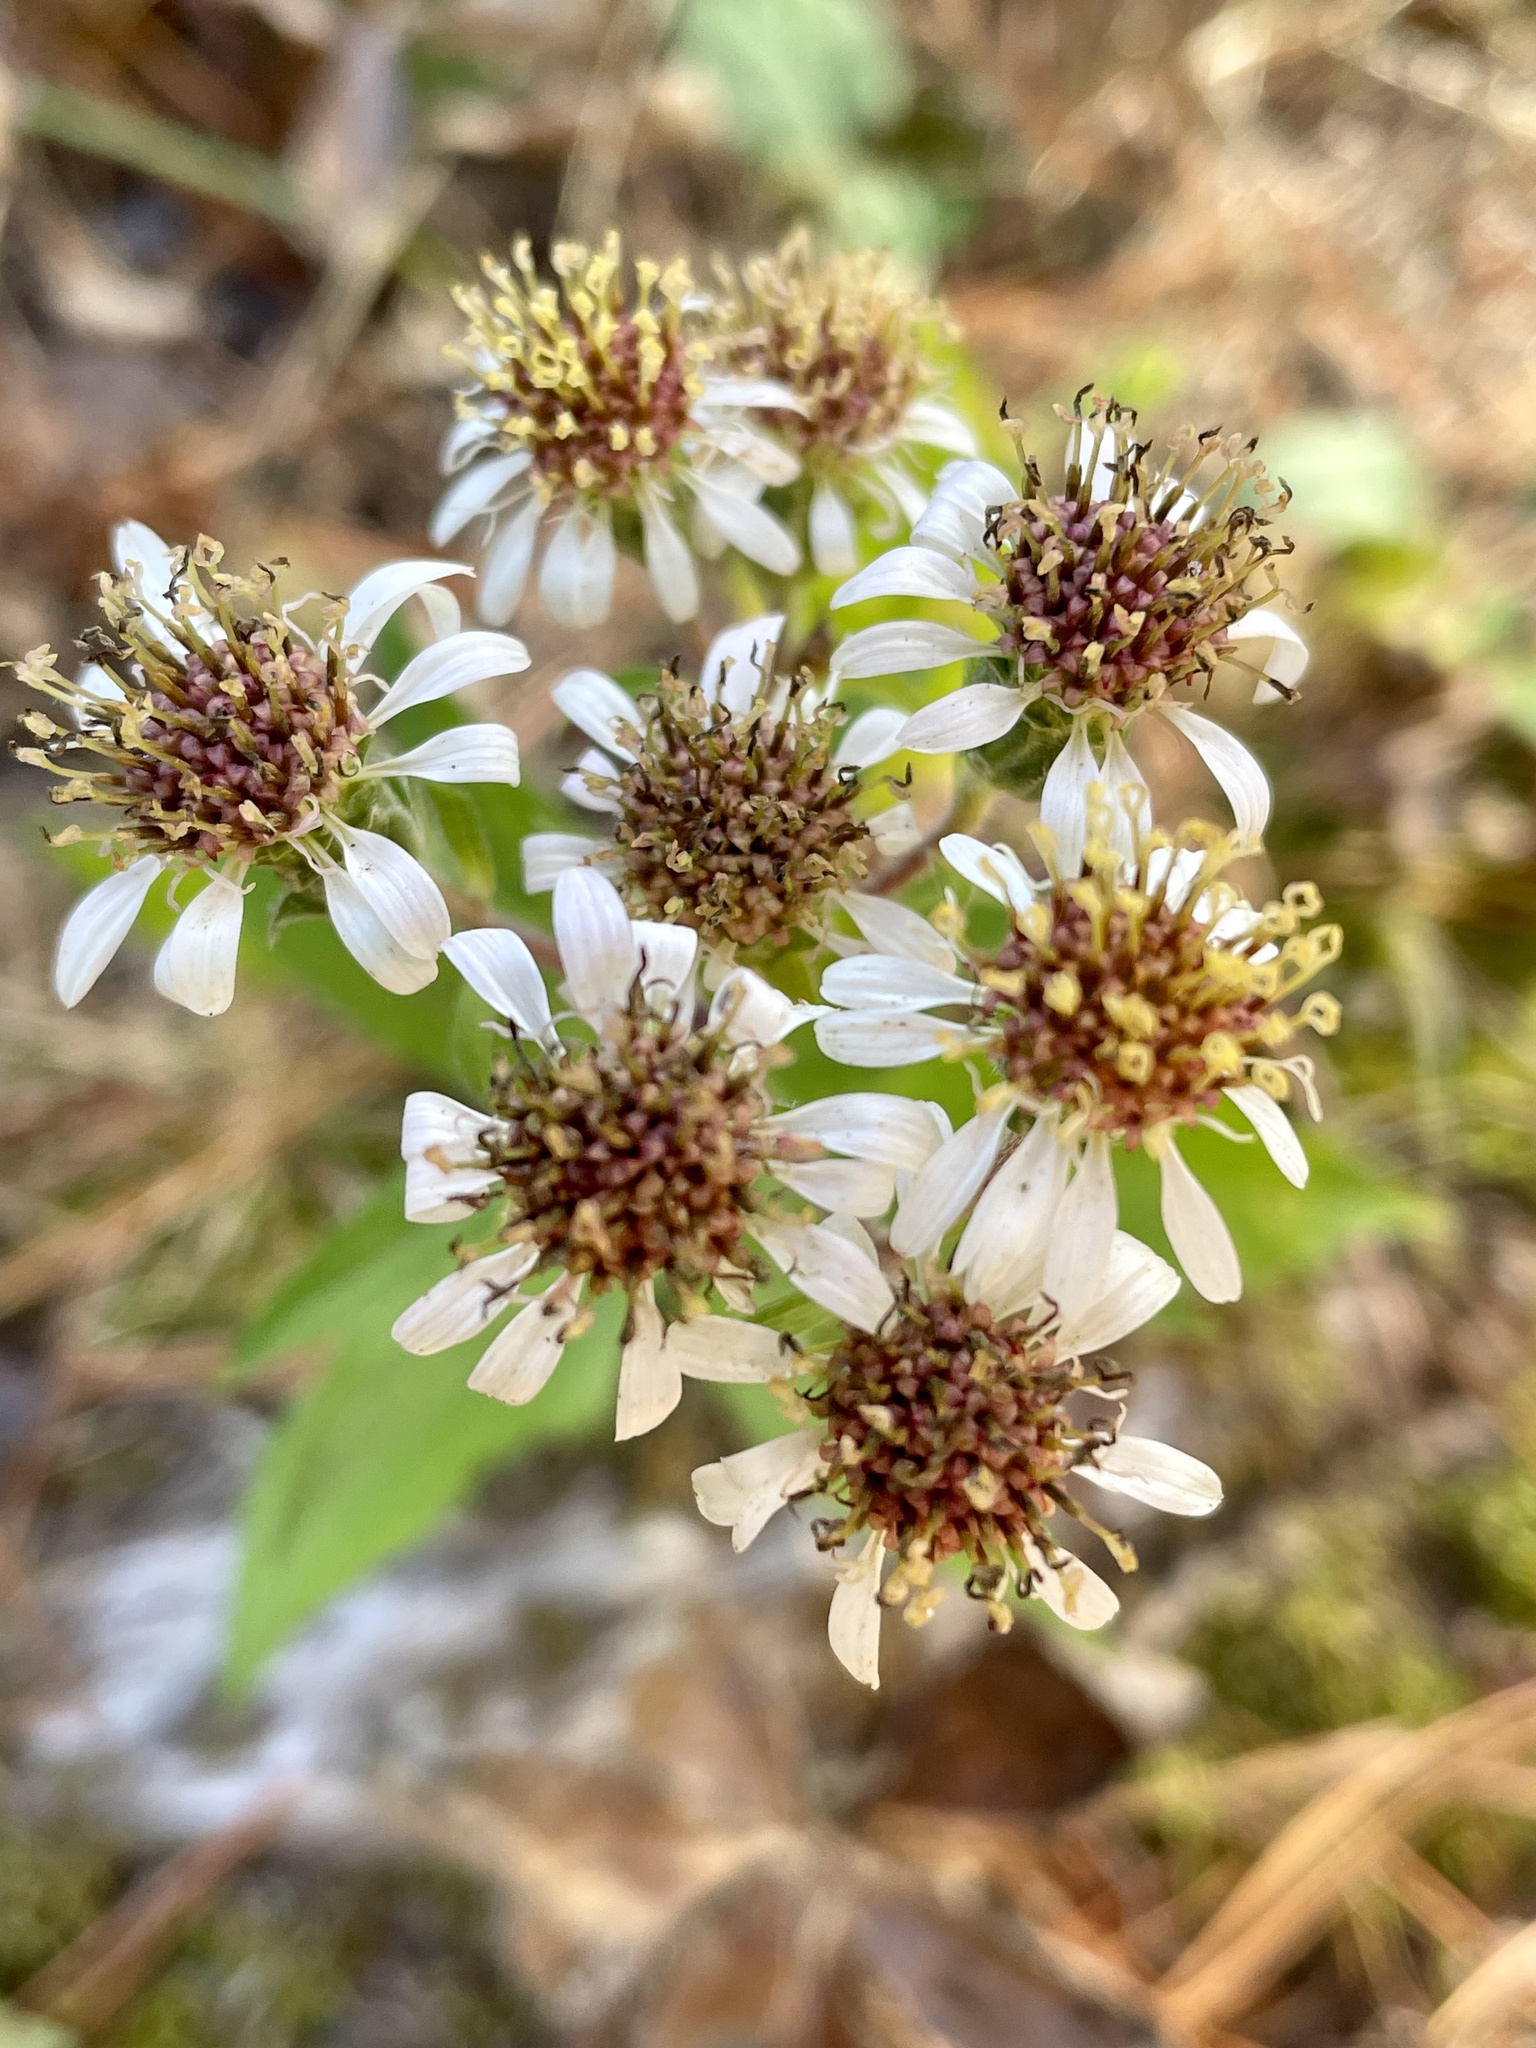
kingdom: Plantae
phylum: Tracheophyta
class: Magnoliopsida
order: Asterales
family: Asteraceae
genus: Eurybia
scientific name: Eurybia radulina
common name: Rough-leaved aster
